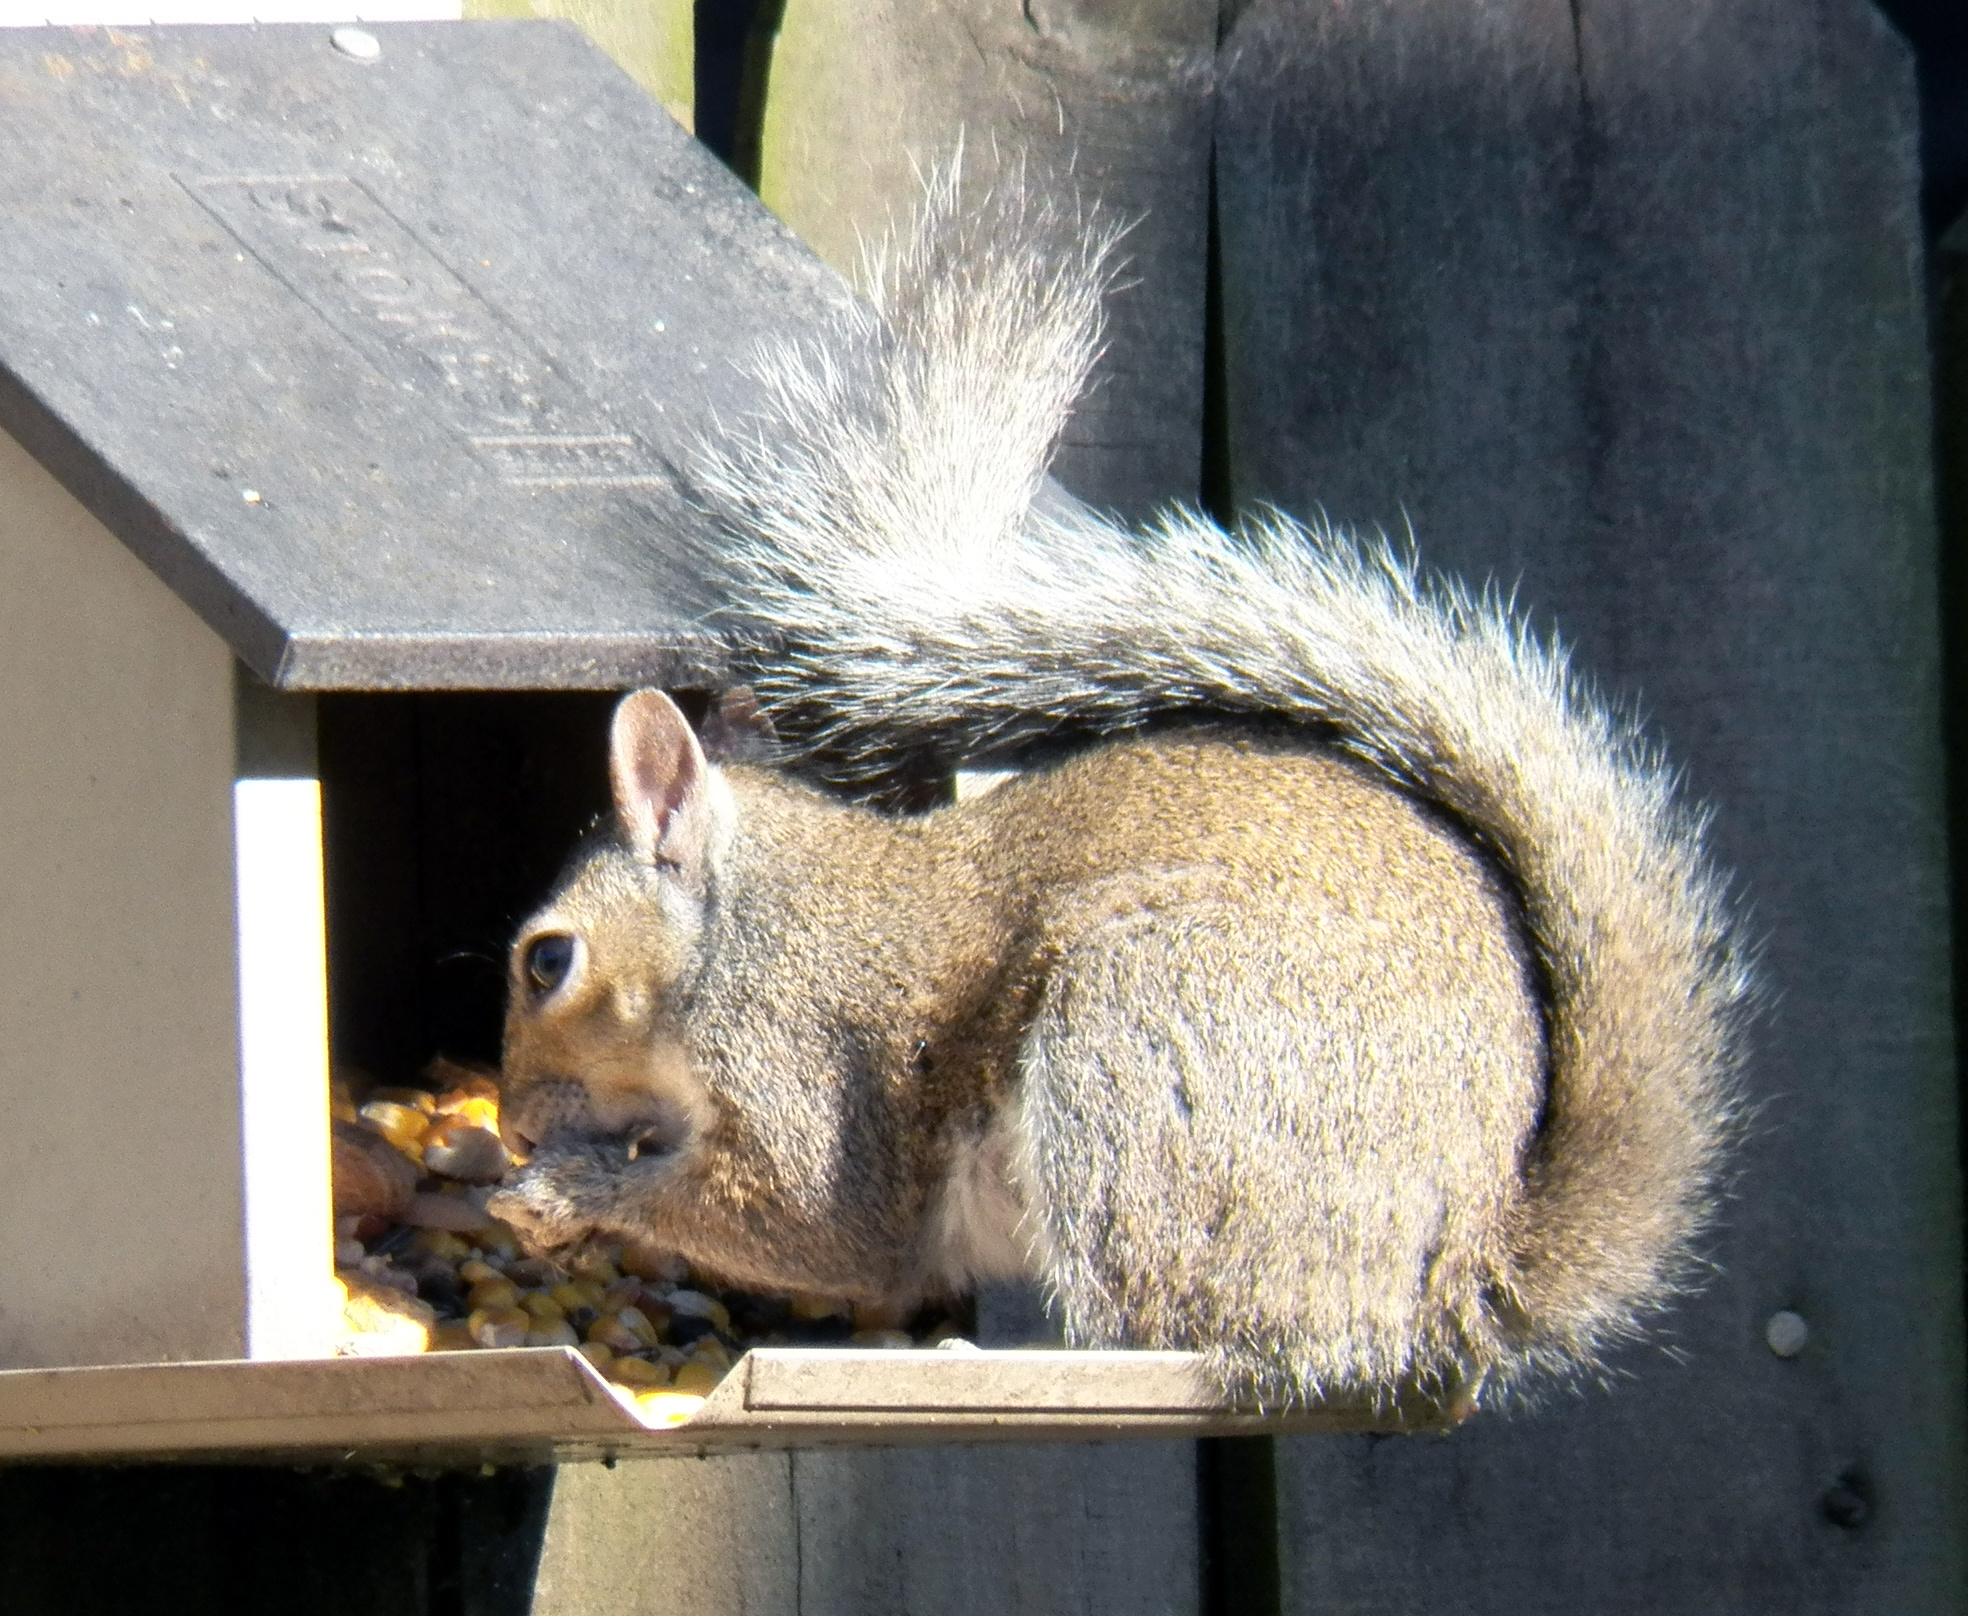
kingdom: Animalia
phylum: Chordata
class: Mammalia
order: Rodentia
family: Sciuridae
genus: Sciurus
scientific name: Sciurus carolinensis
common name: Eastern gray squirrel
